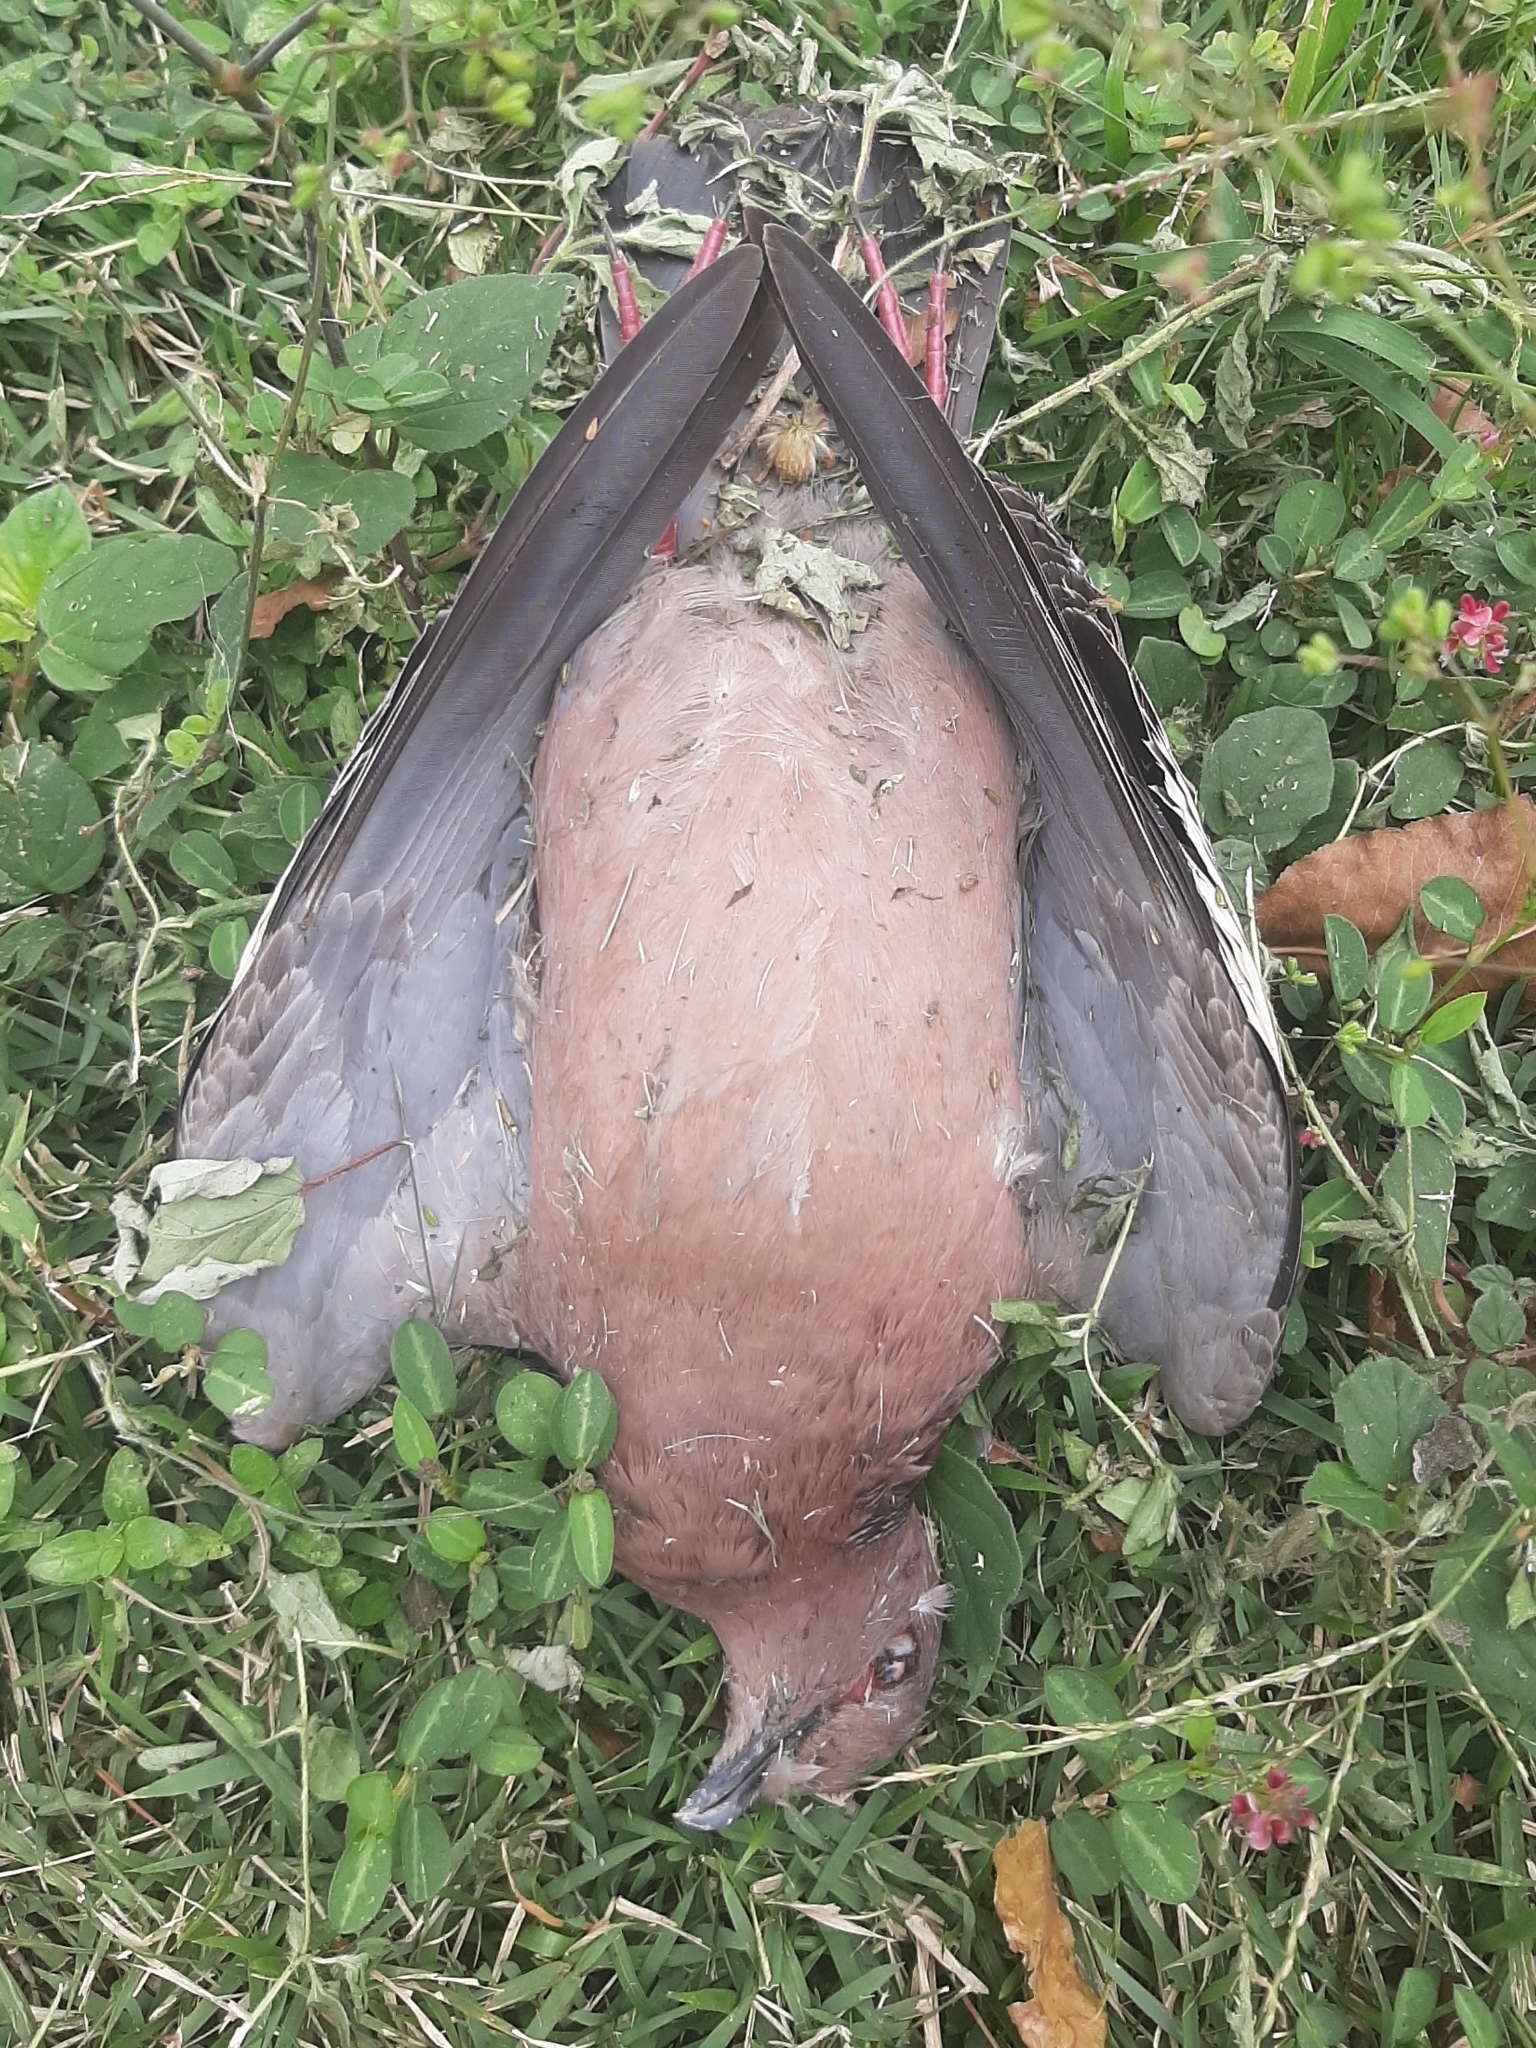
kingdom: Animalia
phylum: Chordata
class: Aves
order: Columbiformes
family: Columbidae
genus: Patagioenas
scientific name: Patagioenas picazuro
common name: Picazuro pigeon
